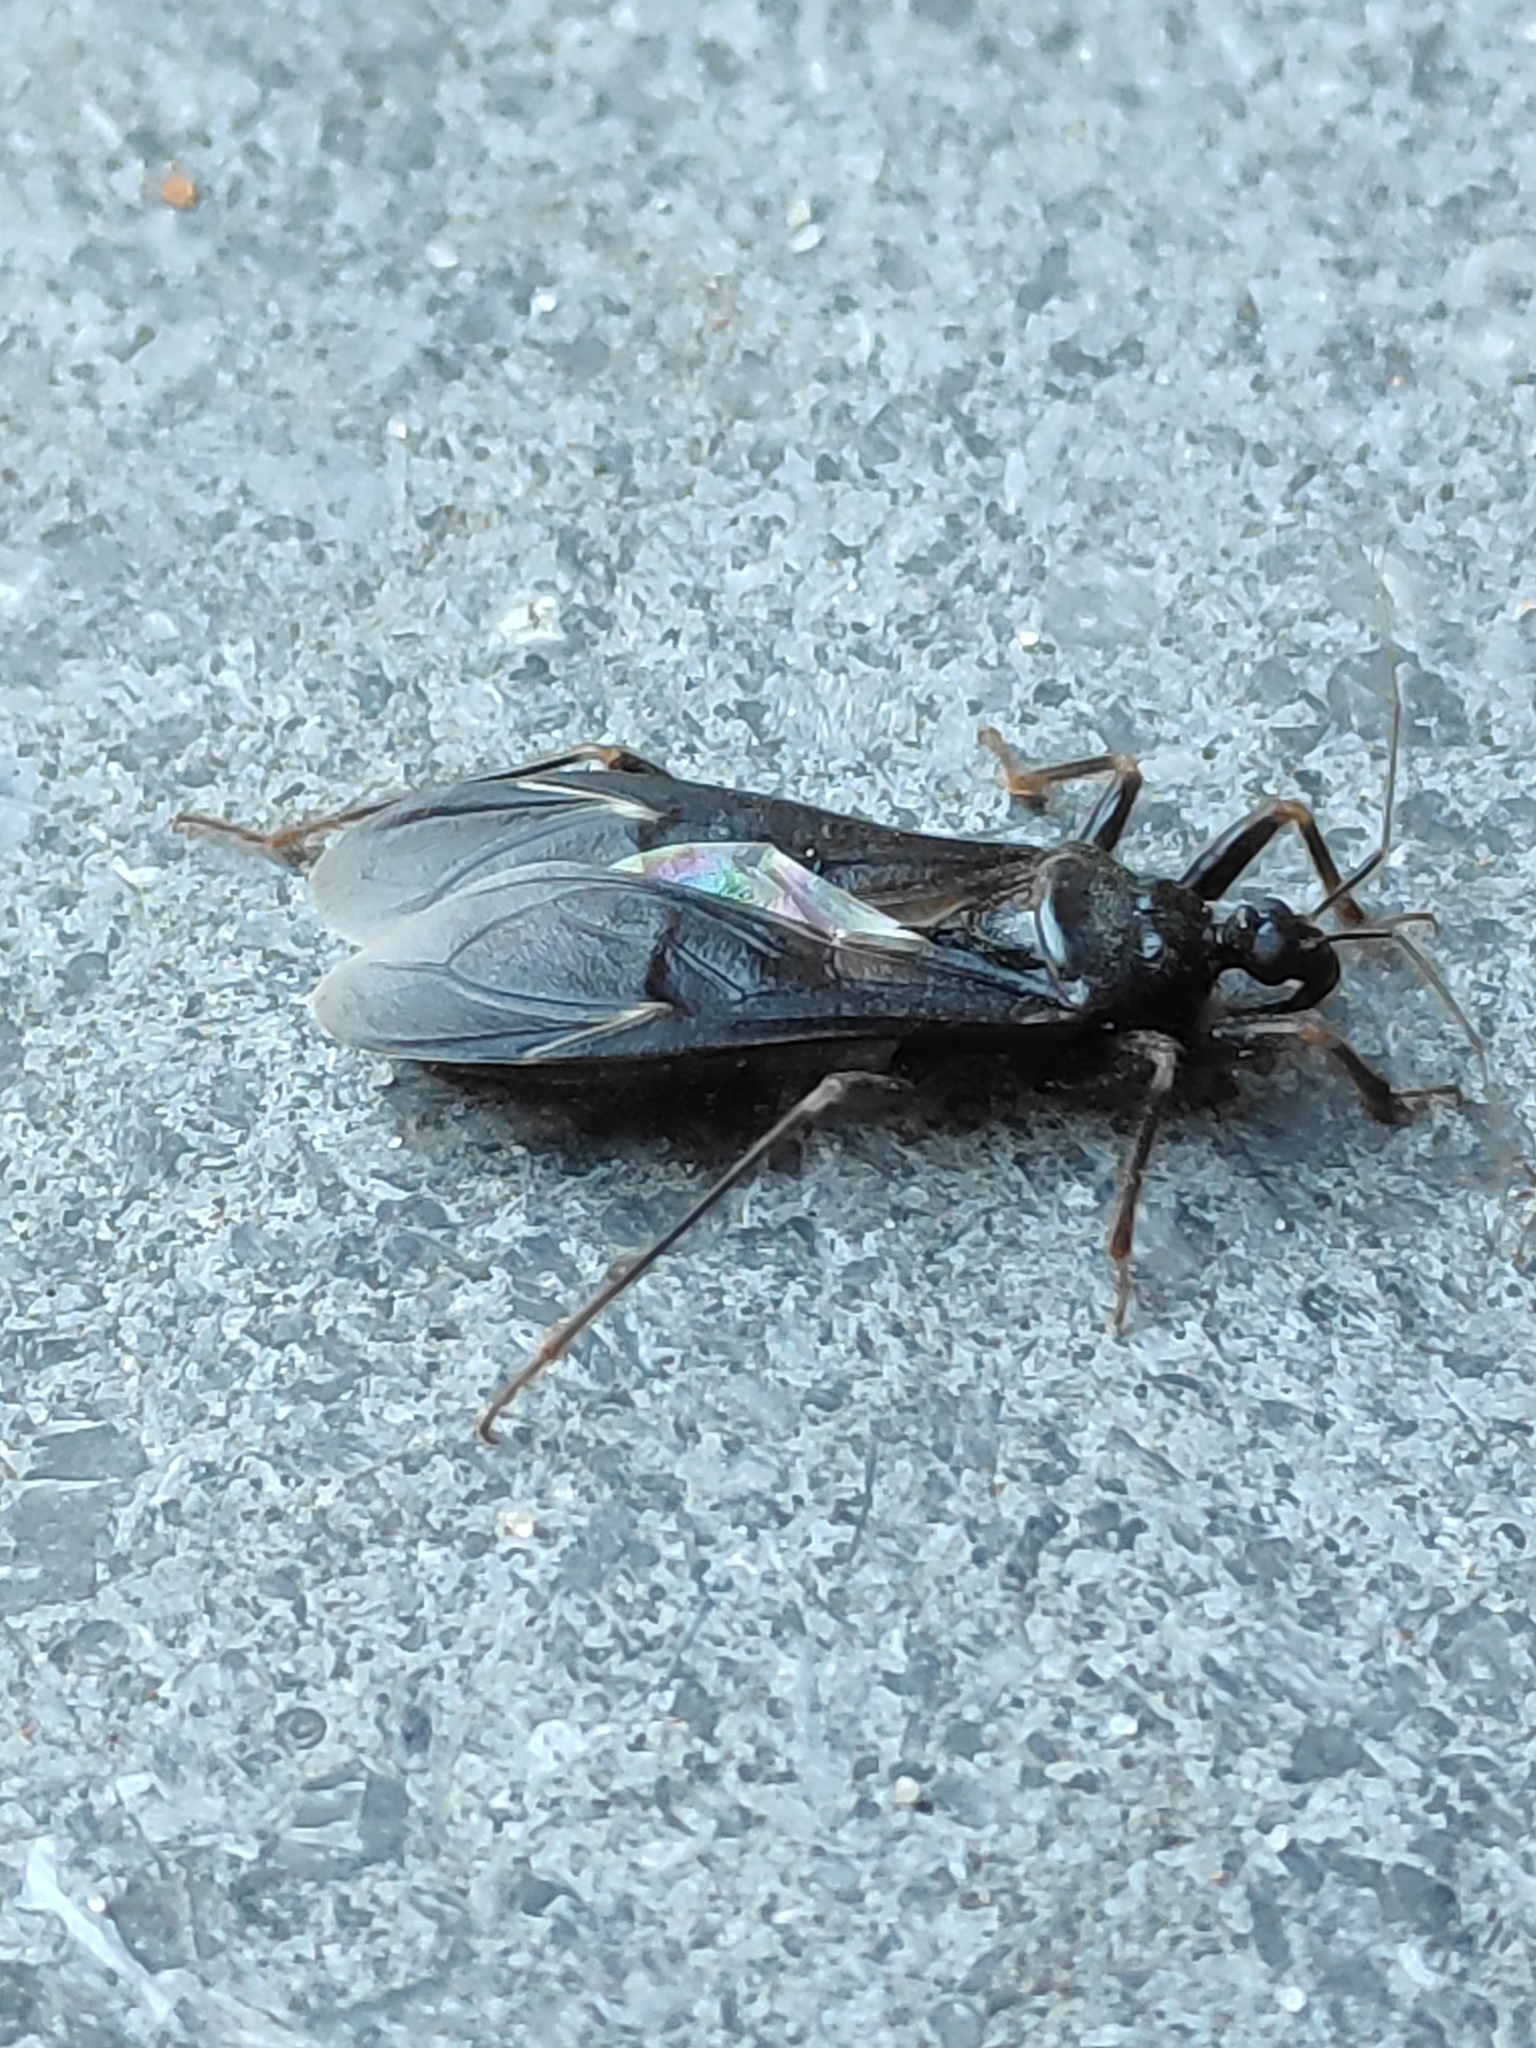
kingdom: Animalia
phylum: Arthropoda
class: Insecta
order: Hemiptera
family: Reduviidae
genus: Reduvius
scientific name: Reduvius personatus
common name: Masked hunter
